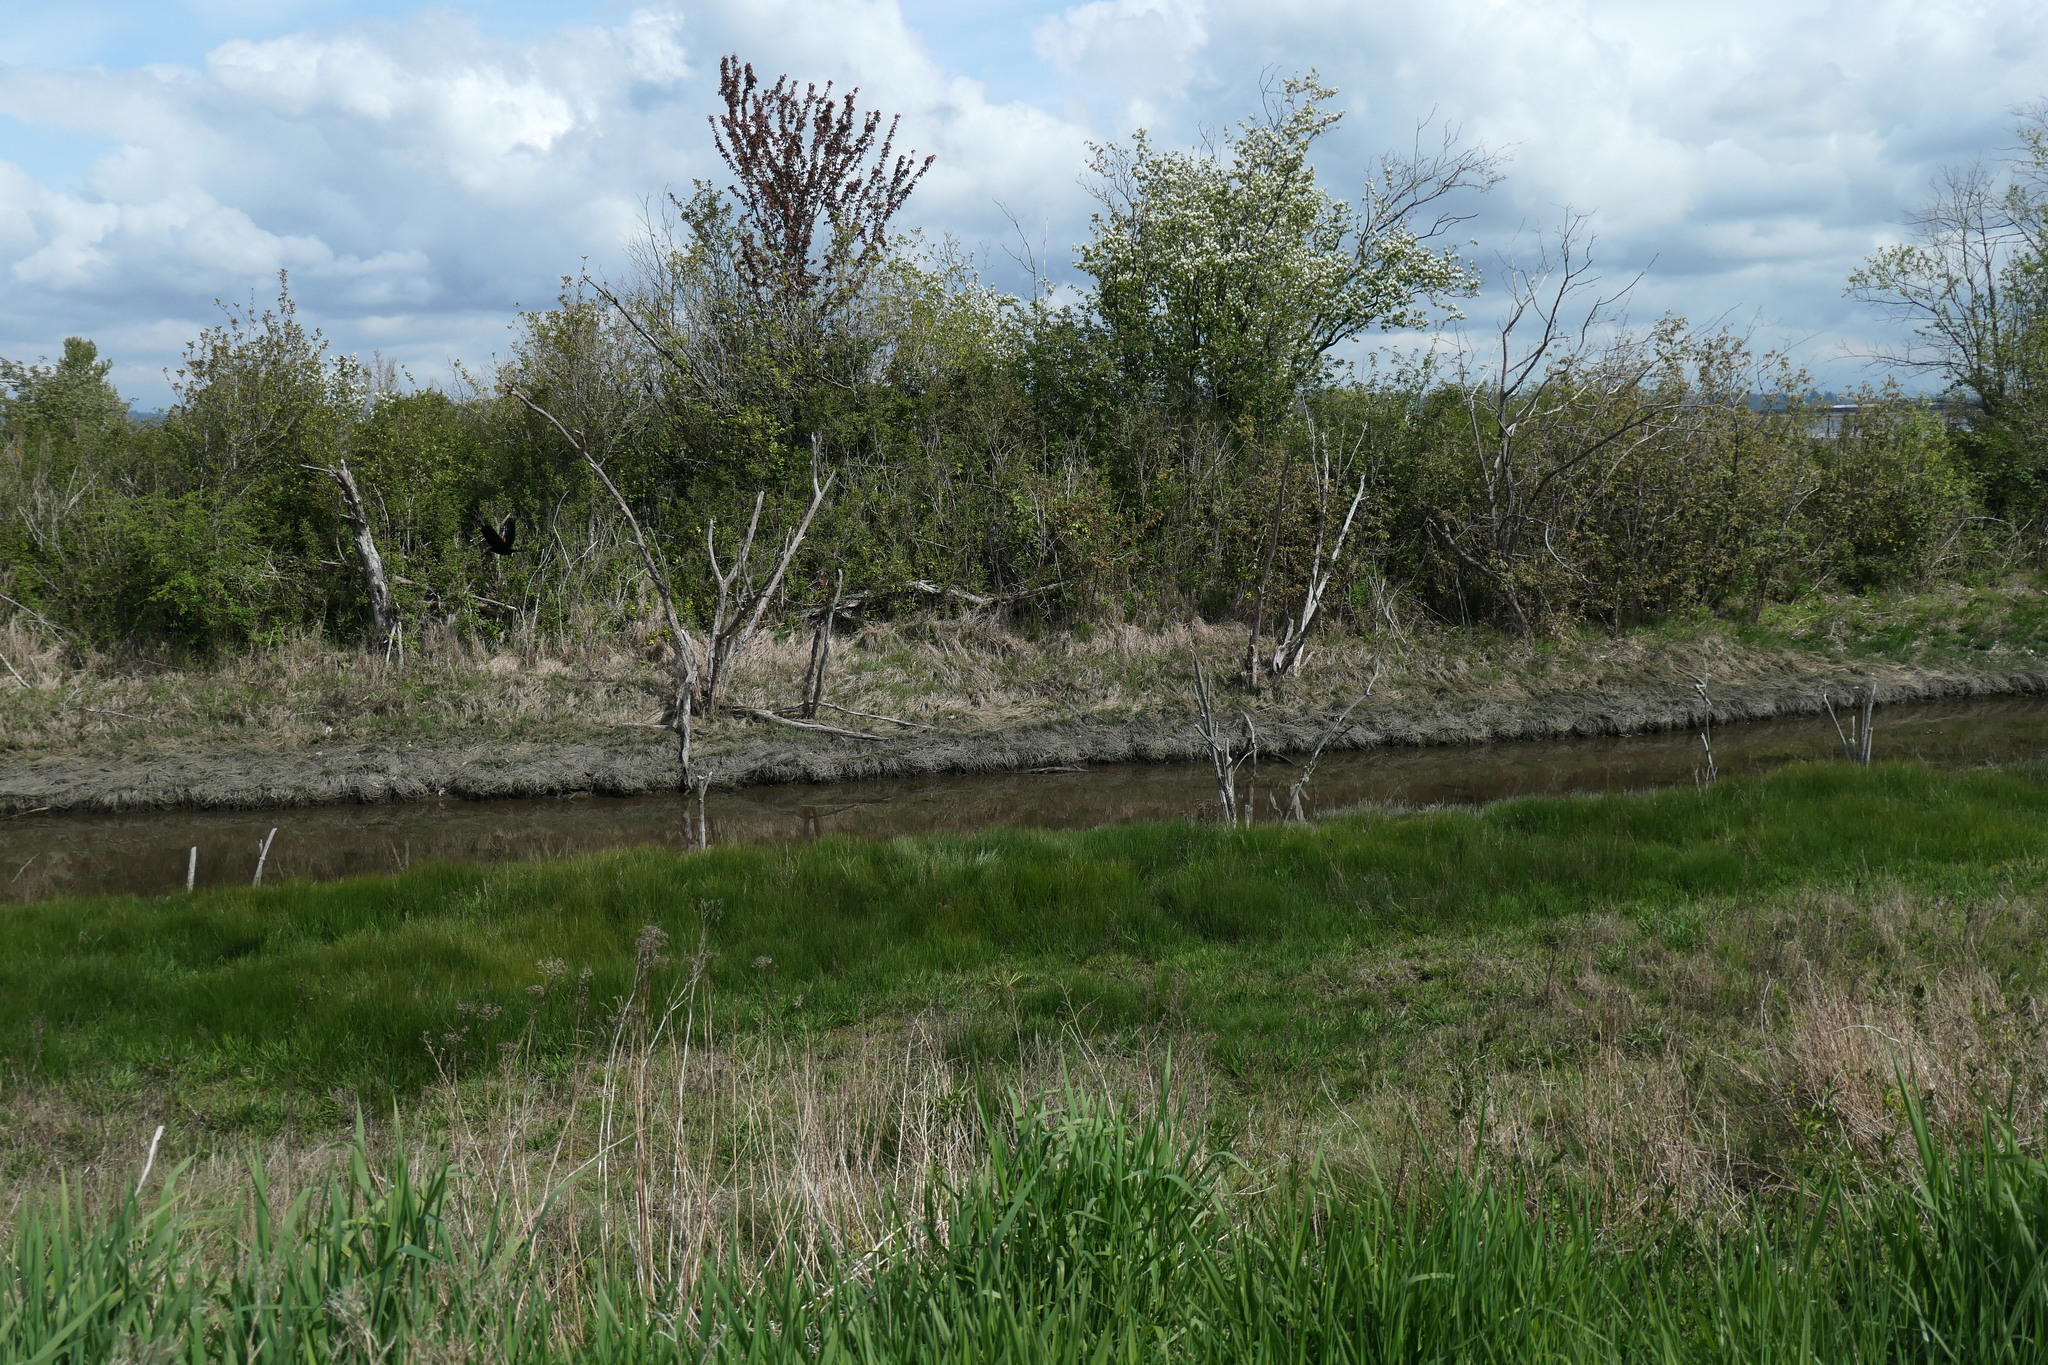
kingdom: Animalia
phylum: Chordata
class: Aves
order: Passeriformes
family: Icteridae
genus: Agelaius
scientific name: Agelaius phoeniceus
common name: Red-winged blackbird
